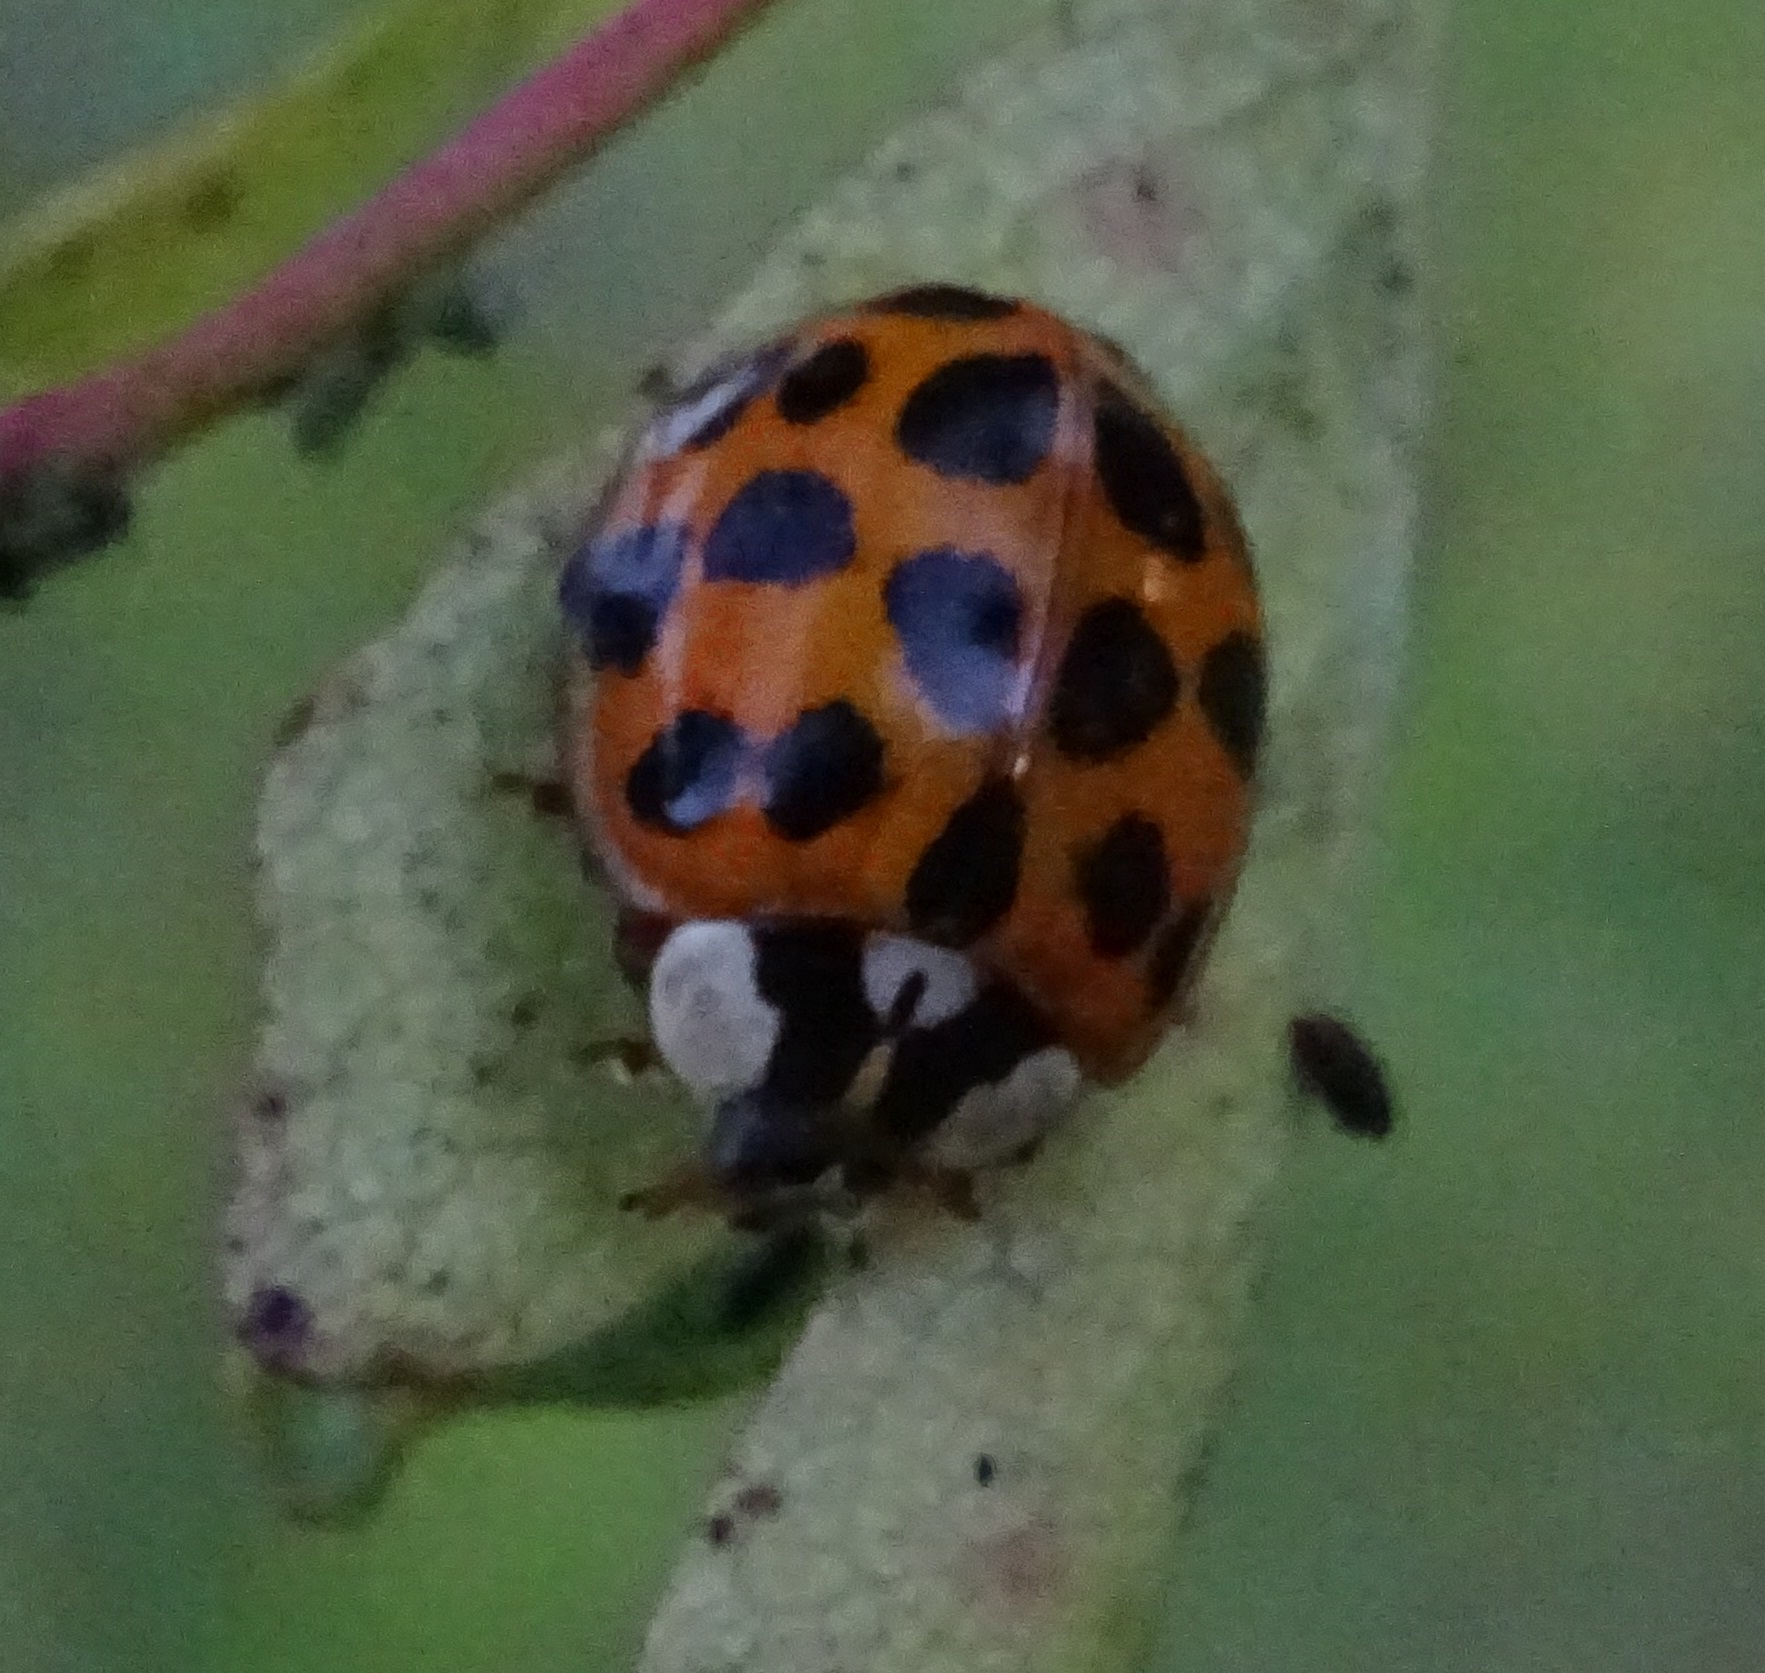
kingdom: Animalia
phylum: Arthropoda
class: Insecta
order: Coleoptera
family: Coccinellidae
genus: Harmonia
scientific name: Harmonia axyridis
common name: Harlequin ladybird
